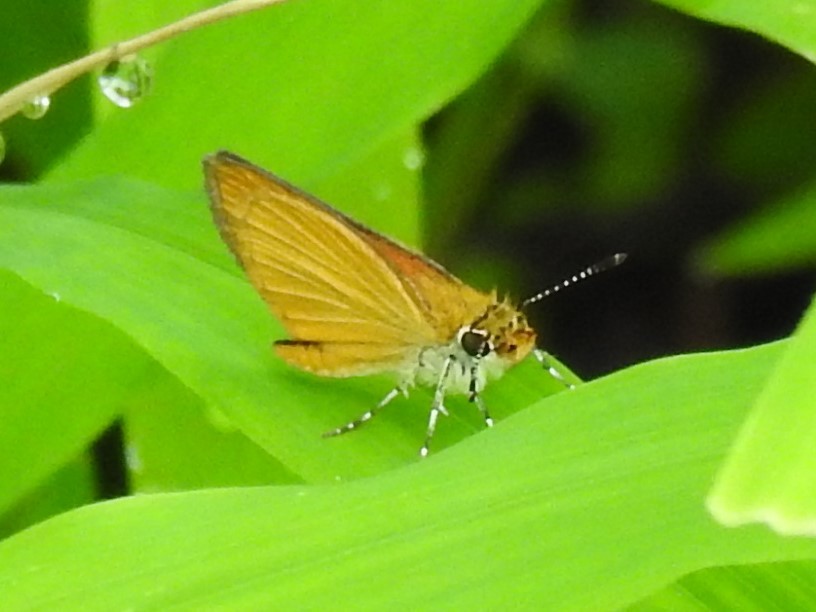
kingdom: Animalia
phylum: Arthropoda
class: Insecta
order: Lepidoptera
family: Hesperiidae
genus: Ancyloxypha
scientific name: Ancyloxypha numitor
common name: Least skipper
